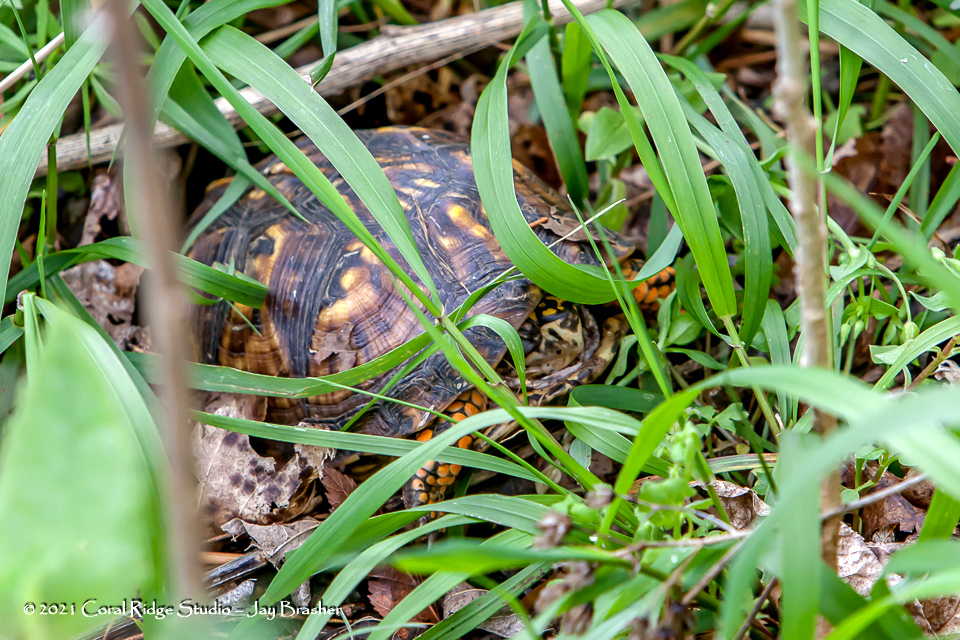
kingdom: Animalia
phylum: Chordata
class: Testudines
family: Emydidae
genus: Terrapene
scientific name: Terrapene carolina
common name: Common box turtle
